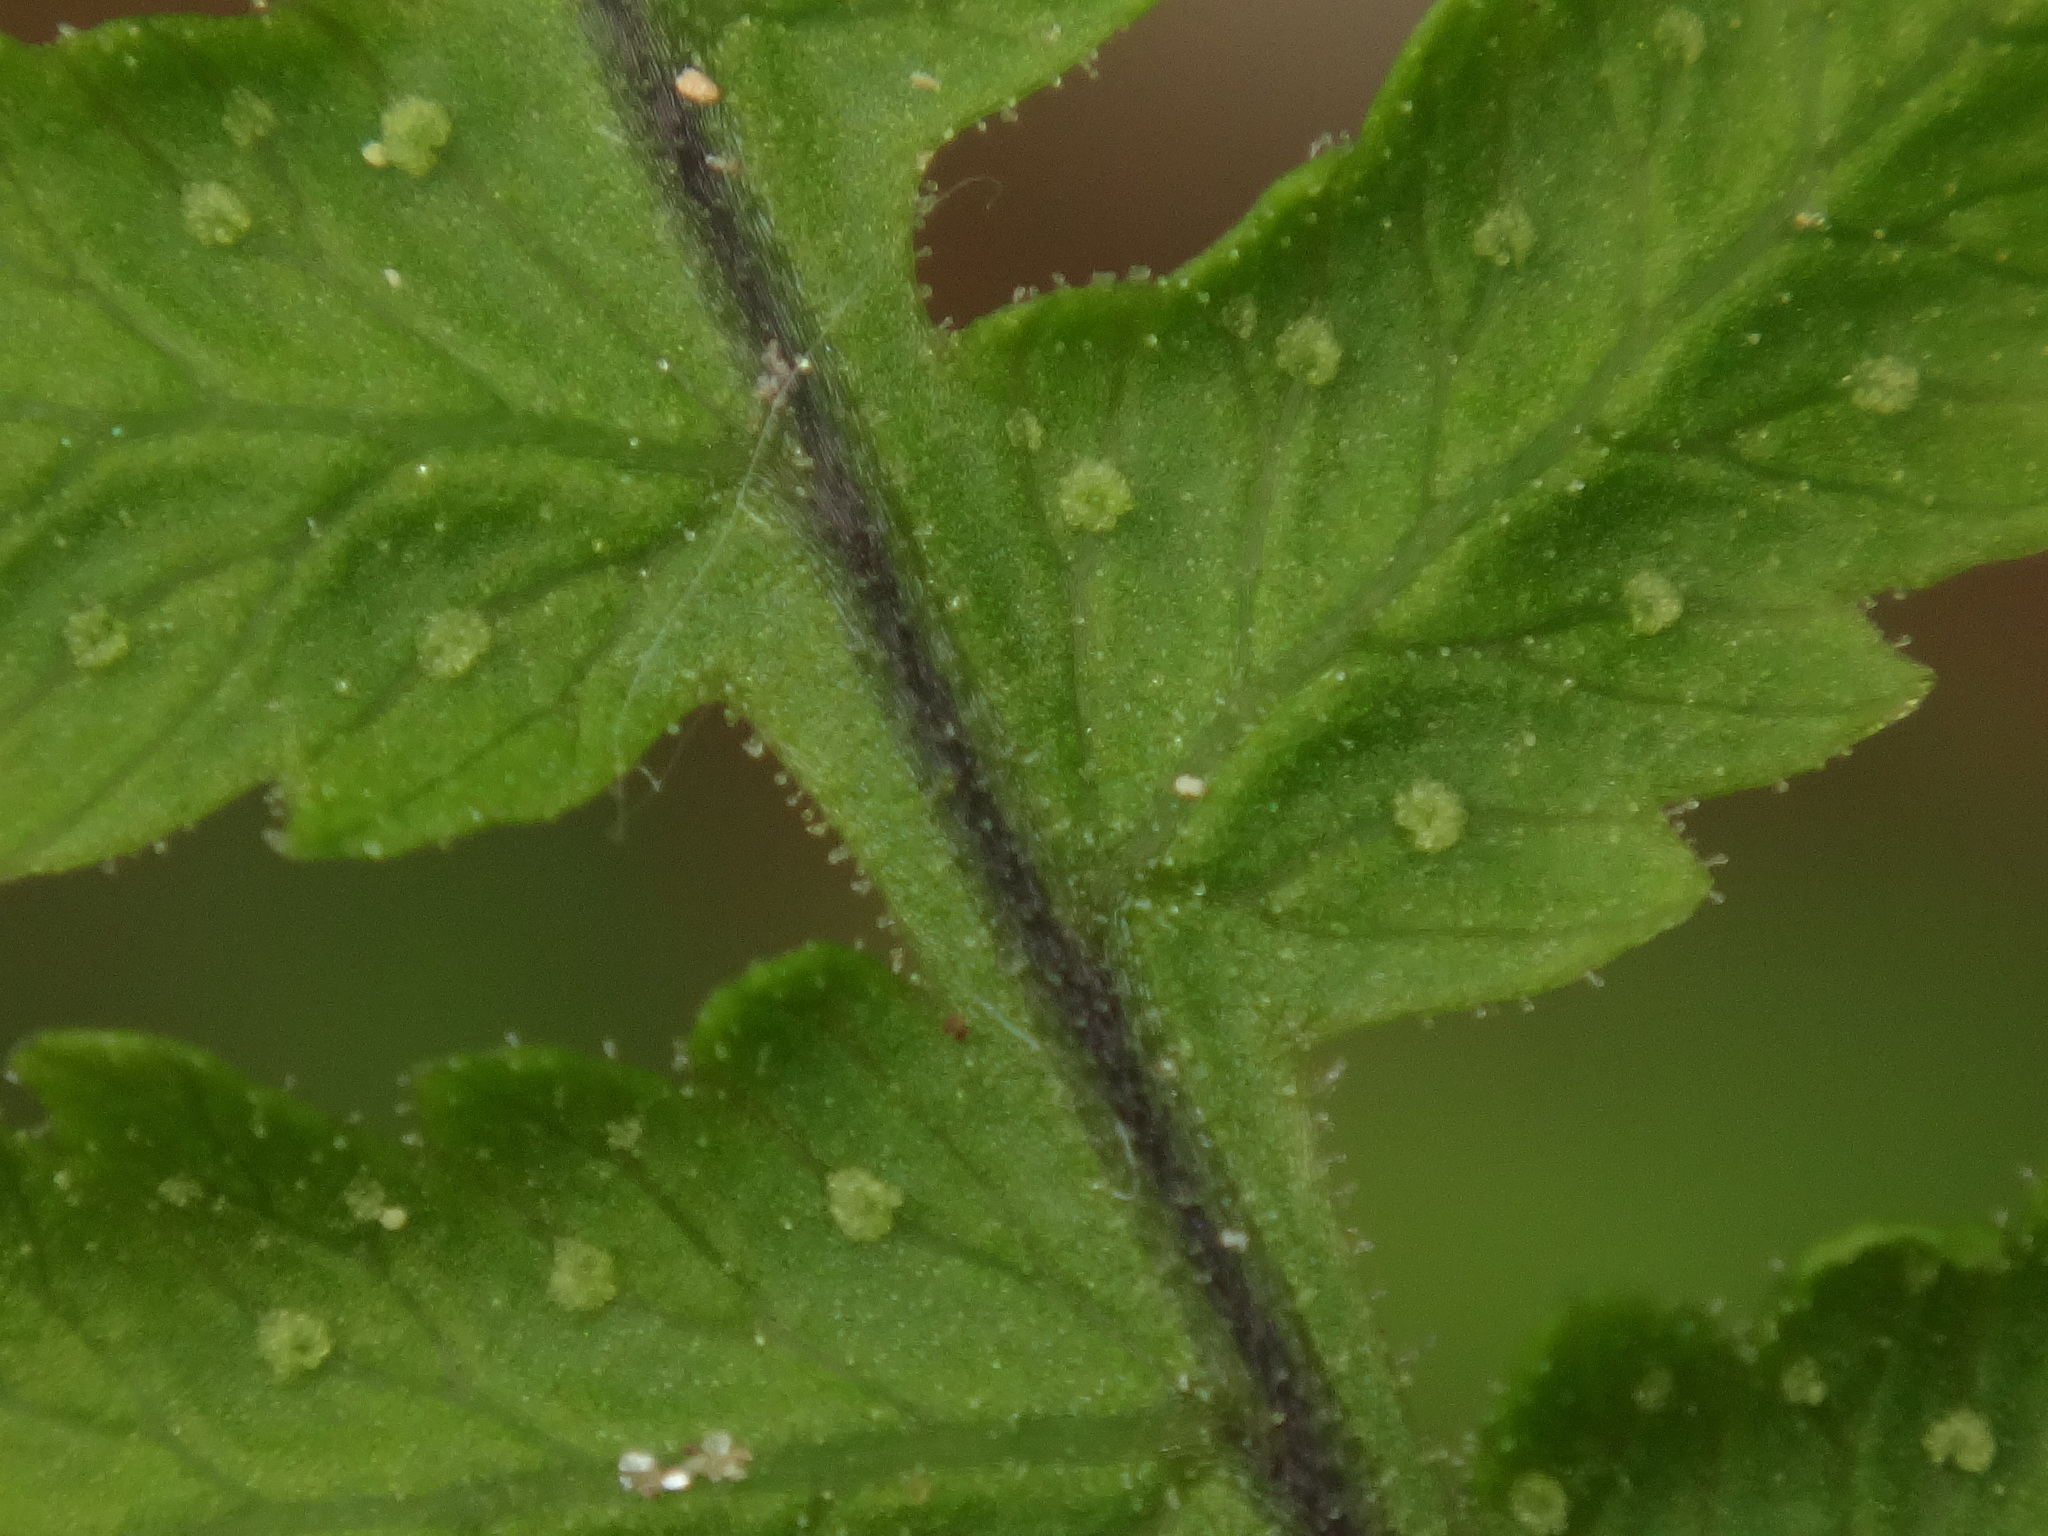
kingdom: Plantae
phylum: Tracheophyta
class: Polypodiopsida
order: Polypodiales
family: Cystopteridaceae
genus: Gymnocarpium
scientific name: Gymnocarpium robertianum
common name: Limestone fern
